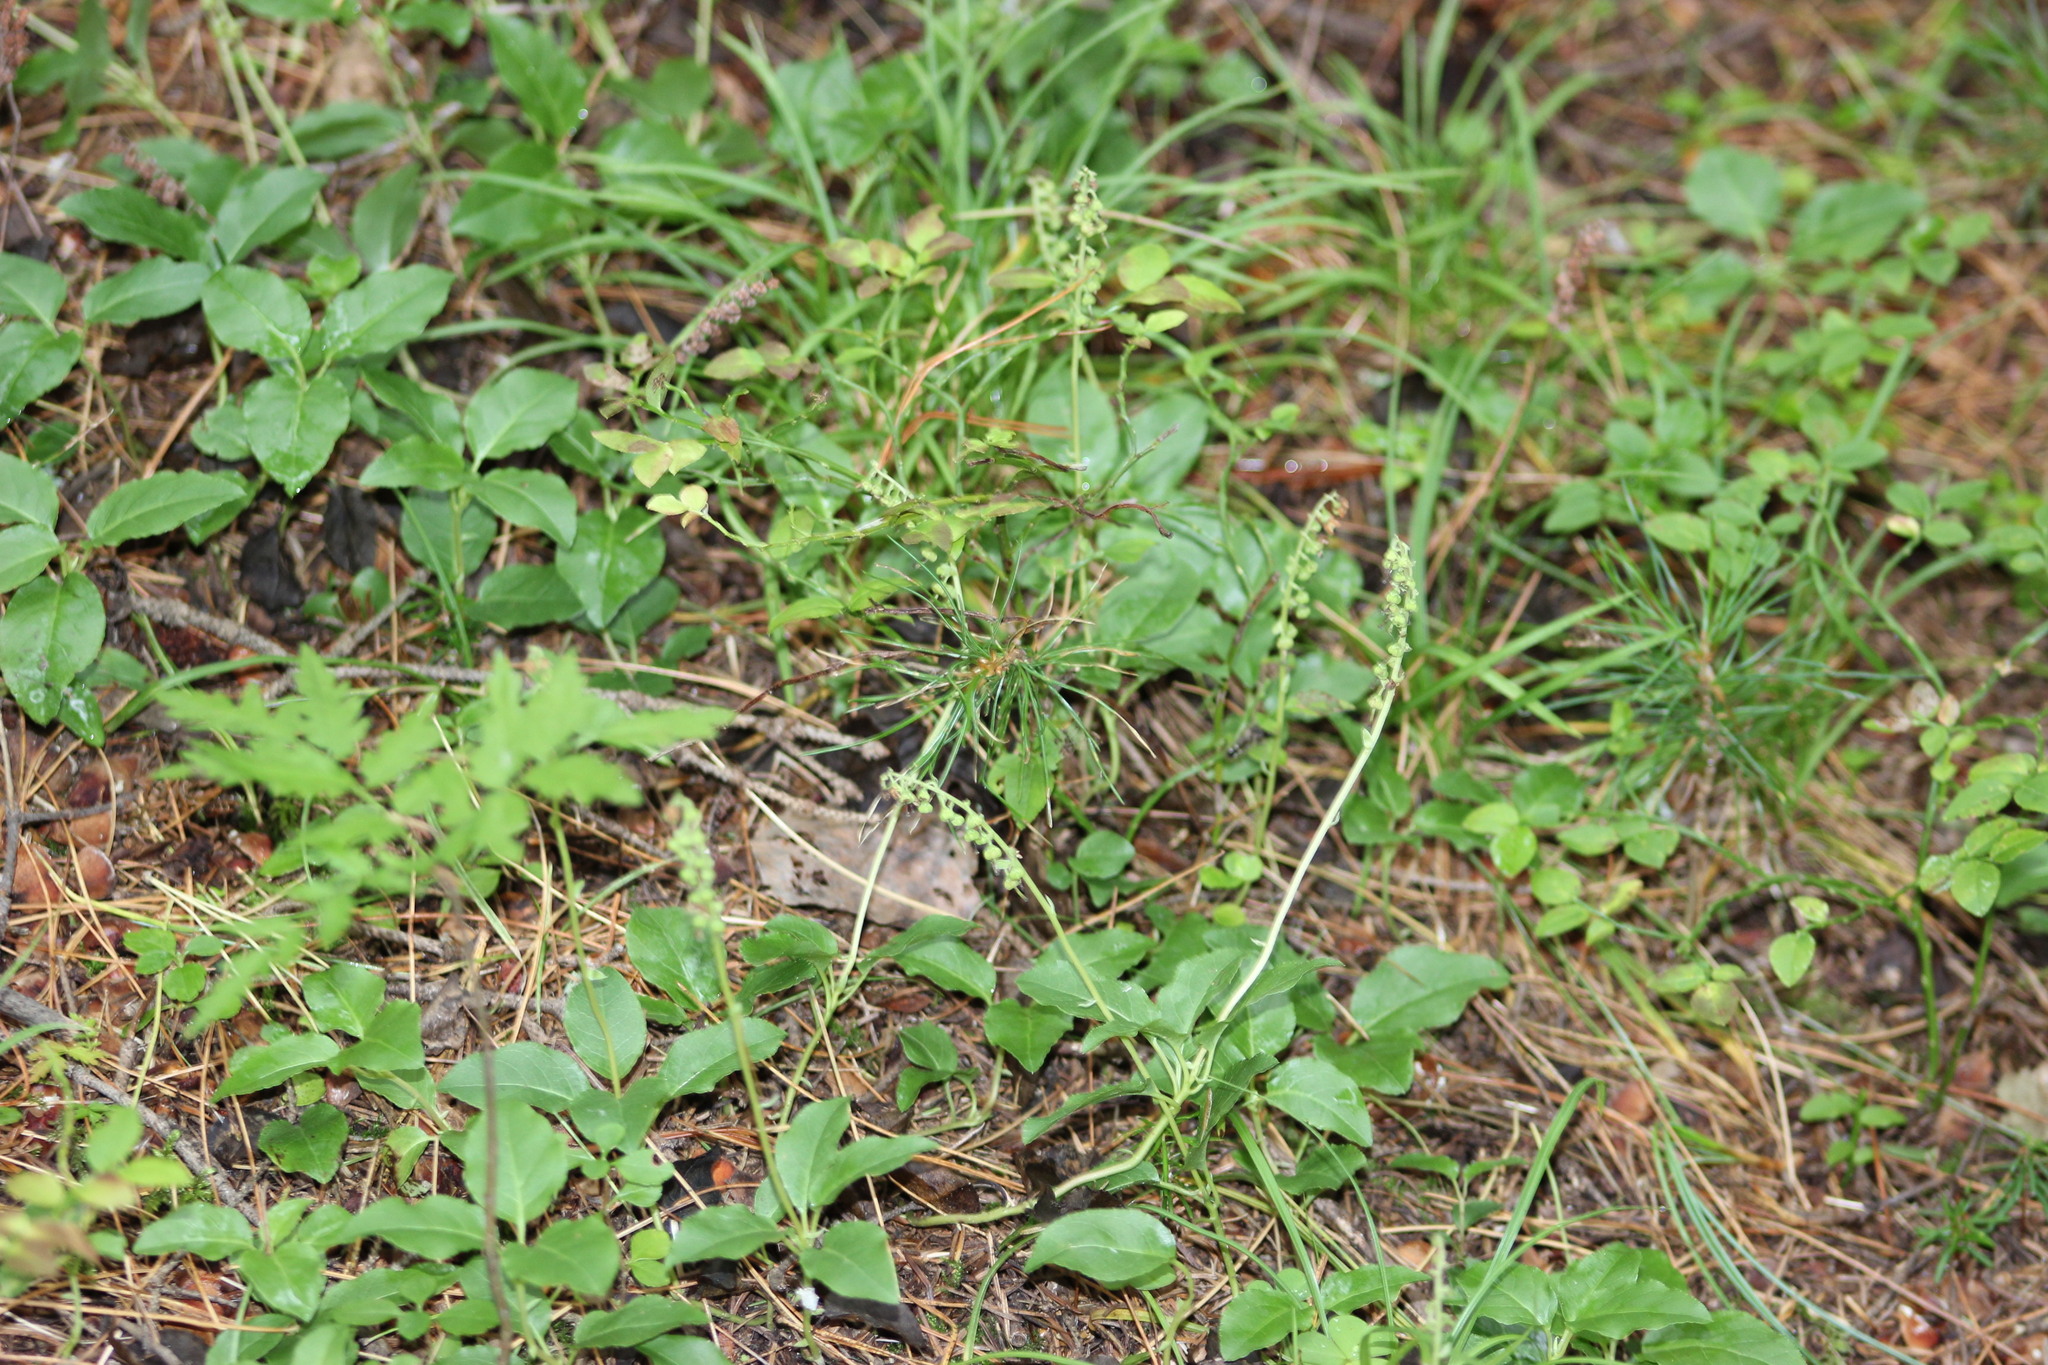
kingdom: Plantae
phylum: Tracheophyta
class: Magnoliopsida
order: Ericales
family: Ericaceae
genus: Orthilia
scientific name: Orthilia secunda
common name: One-sided orthilia
